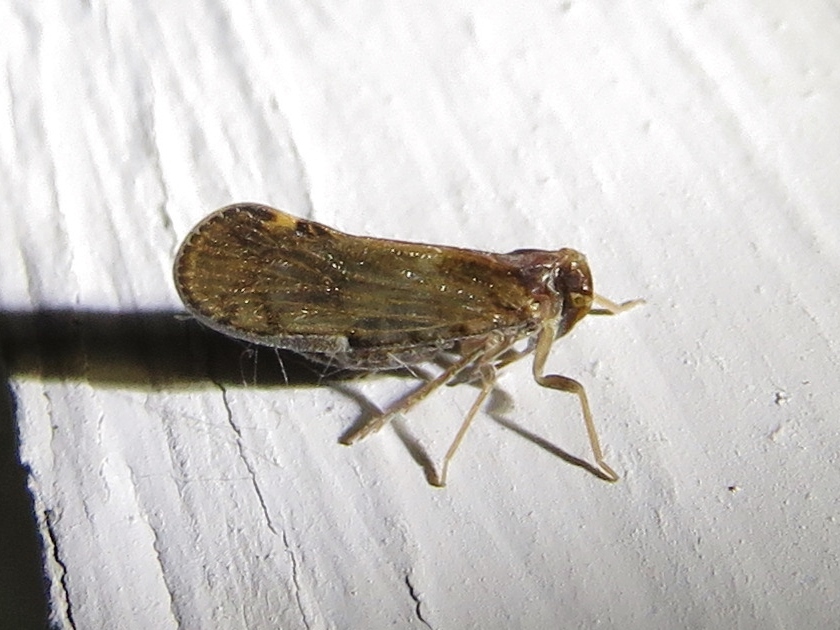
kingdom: Animalia
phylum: Arthropoda
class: Insecta
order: Hemiptera
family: Cixiidae
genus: Pintalia
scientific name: Pintalia vibex
